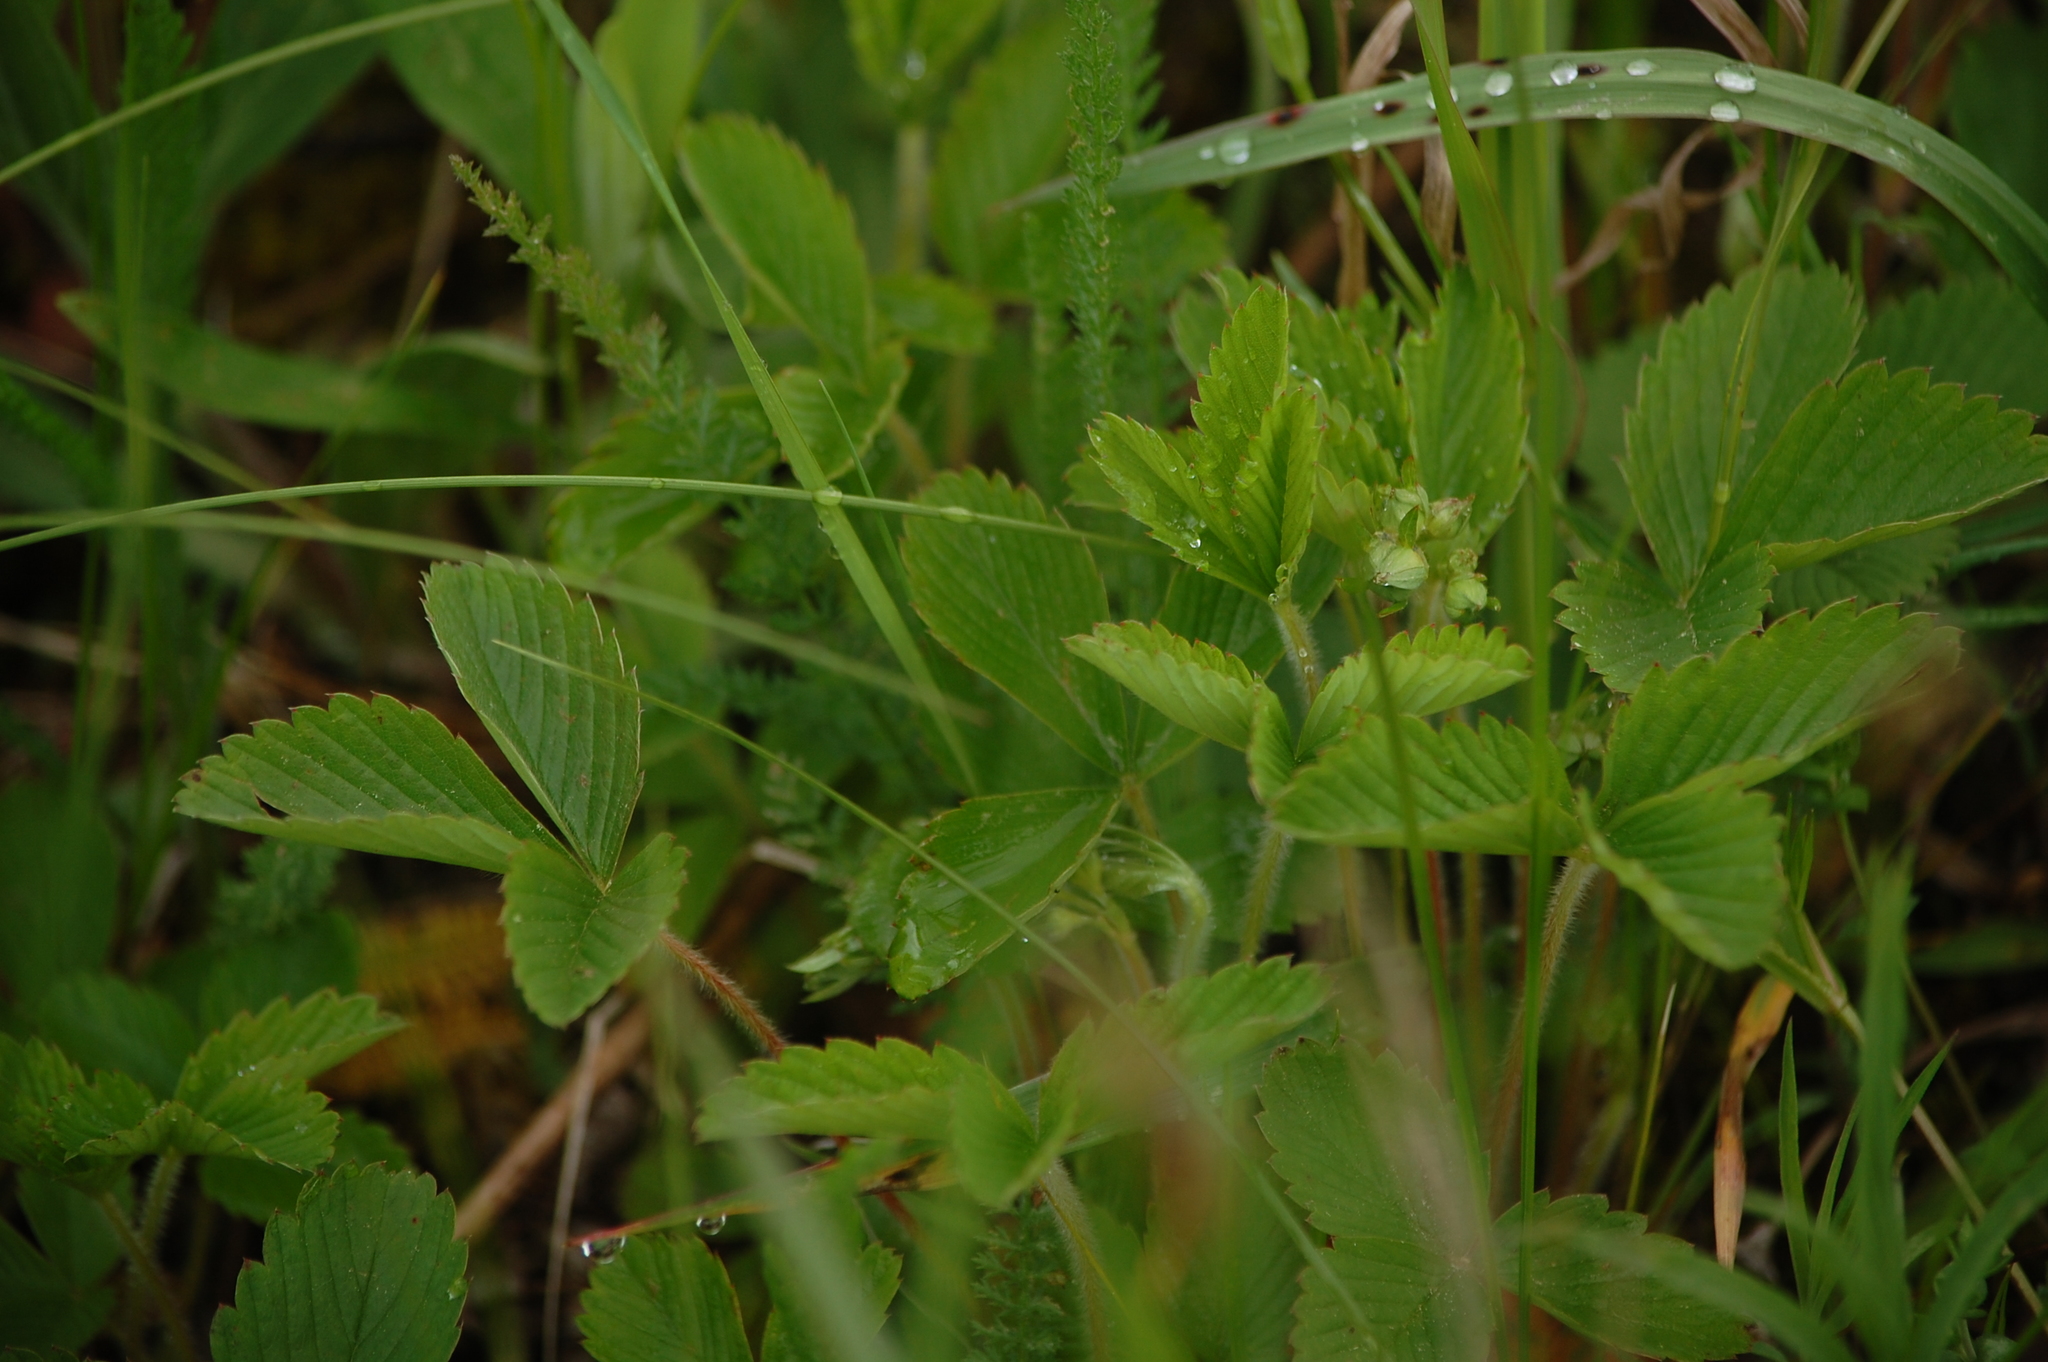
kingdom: Plantae
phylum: Tracheophyta
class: Magnoliopsida
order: Rosales
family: Rosaceae
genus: Fragaria
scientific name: Fragaria viridis
